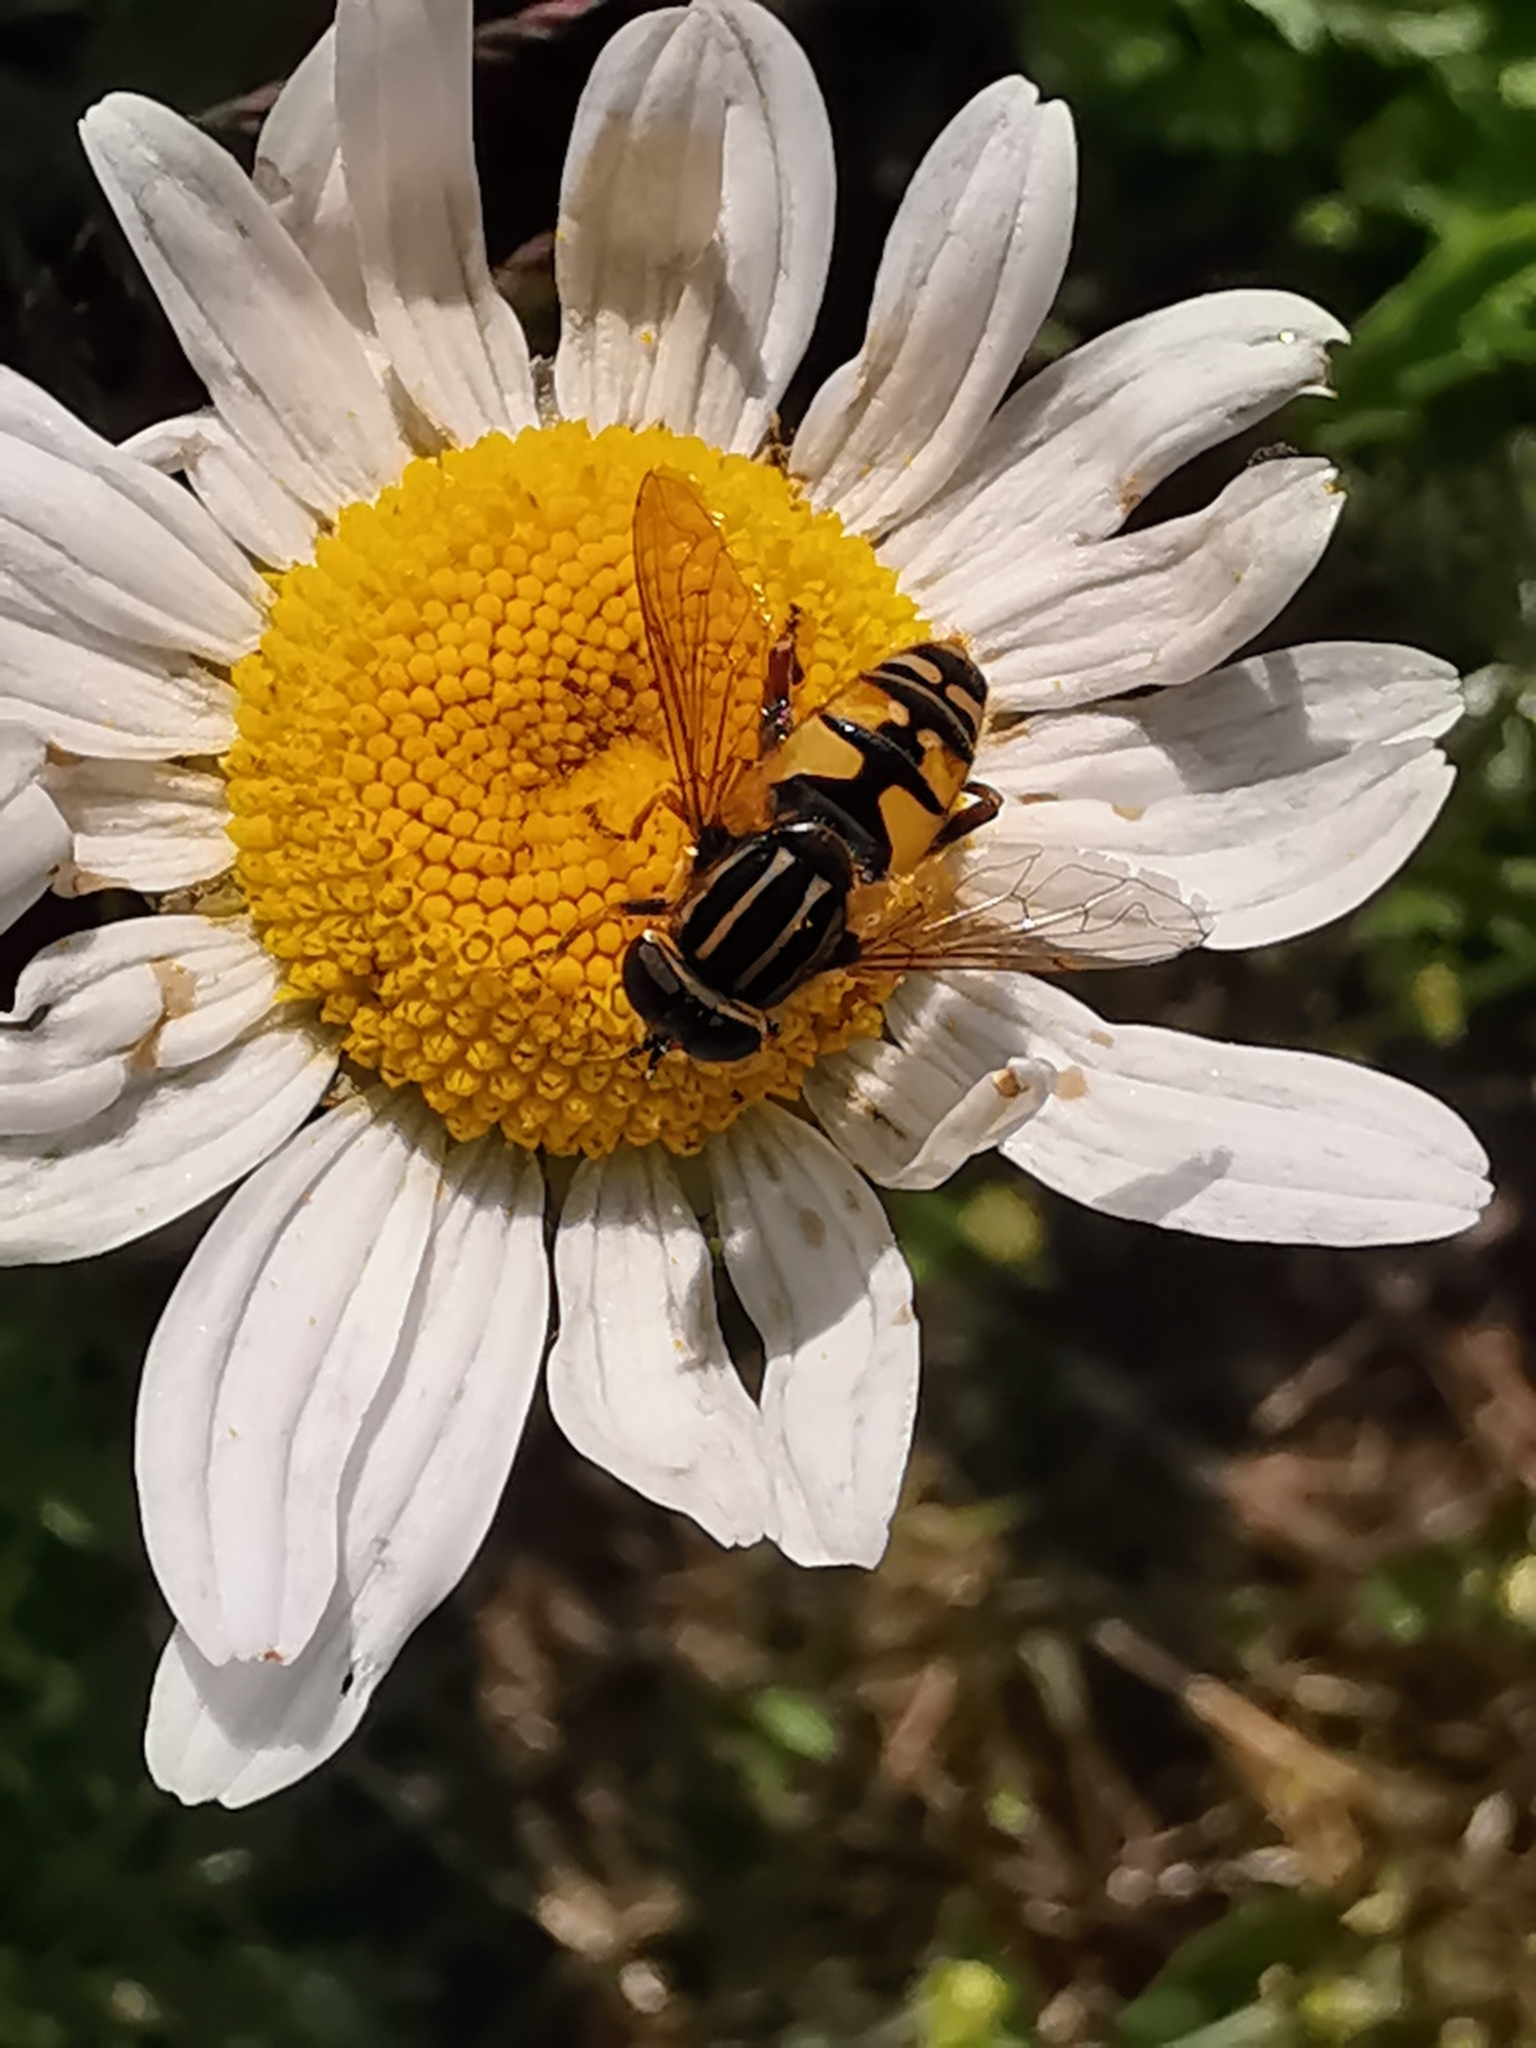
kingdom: Animalia
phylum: Arthropoda
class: Insecta
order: Diptera
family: Syrphidae
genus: Helophilus
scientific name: Helophilus pendulus
